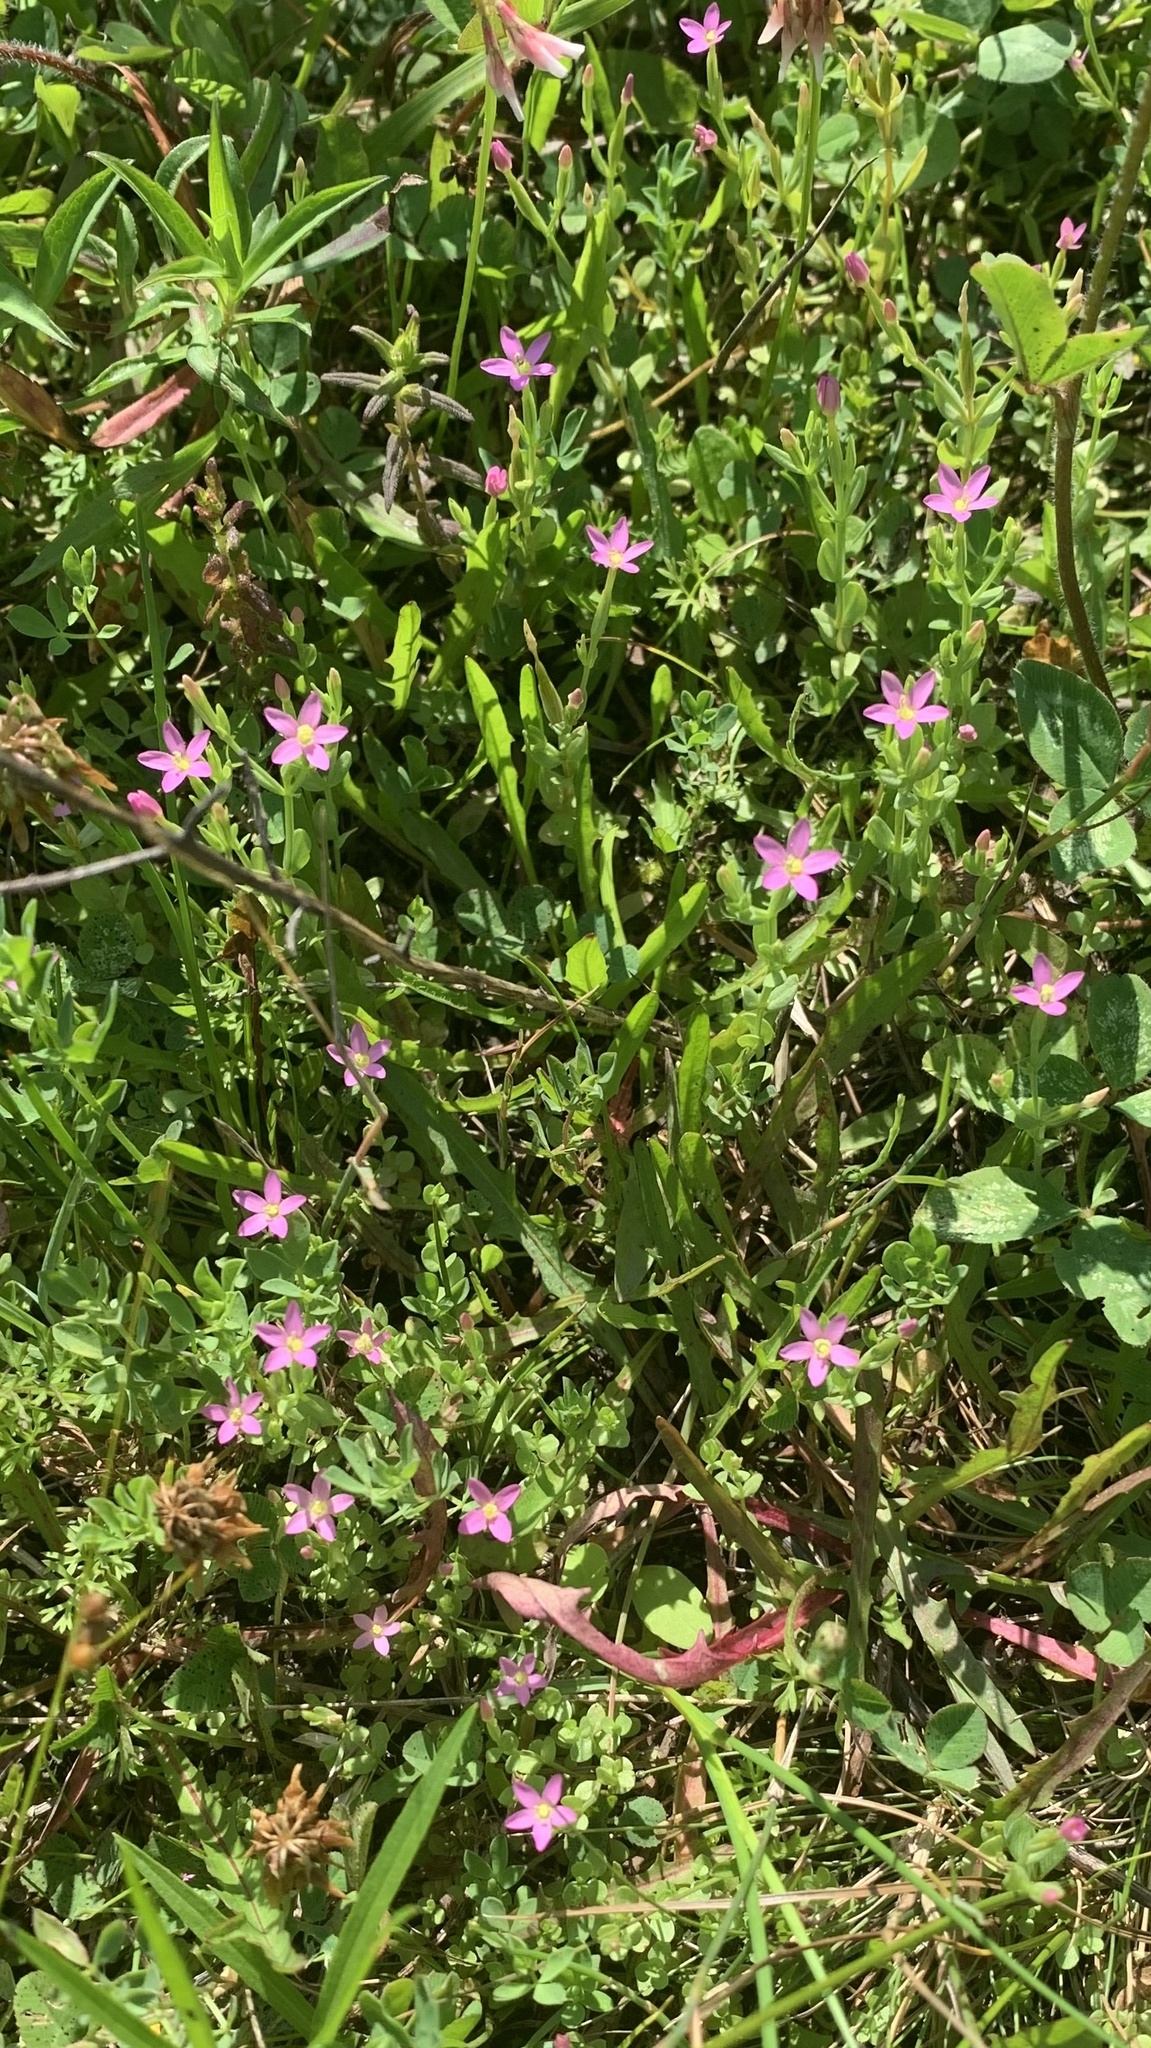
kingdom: Plantae
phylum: Tracheophyta
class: Magnoliopsida
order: Gentianales
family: Gentianaceae
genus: Centaurium
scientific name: Centaurium pulchellum
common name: Lesser centaury
